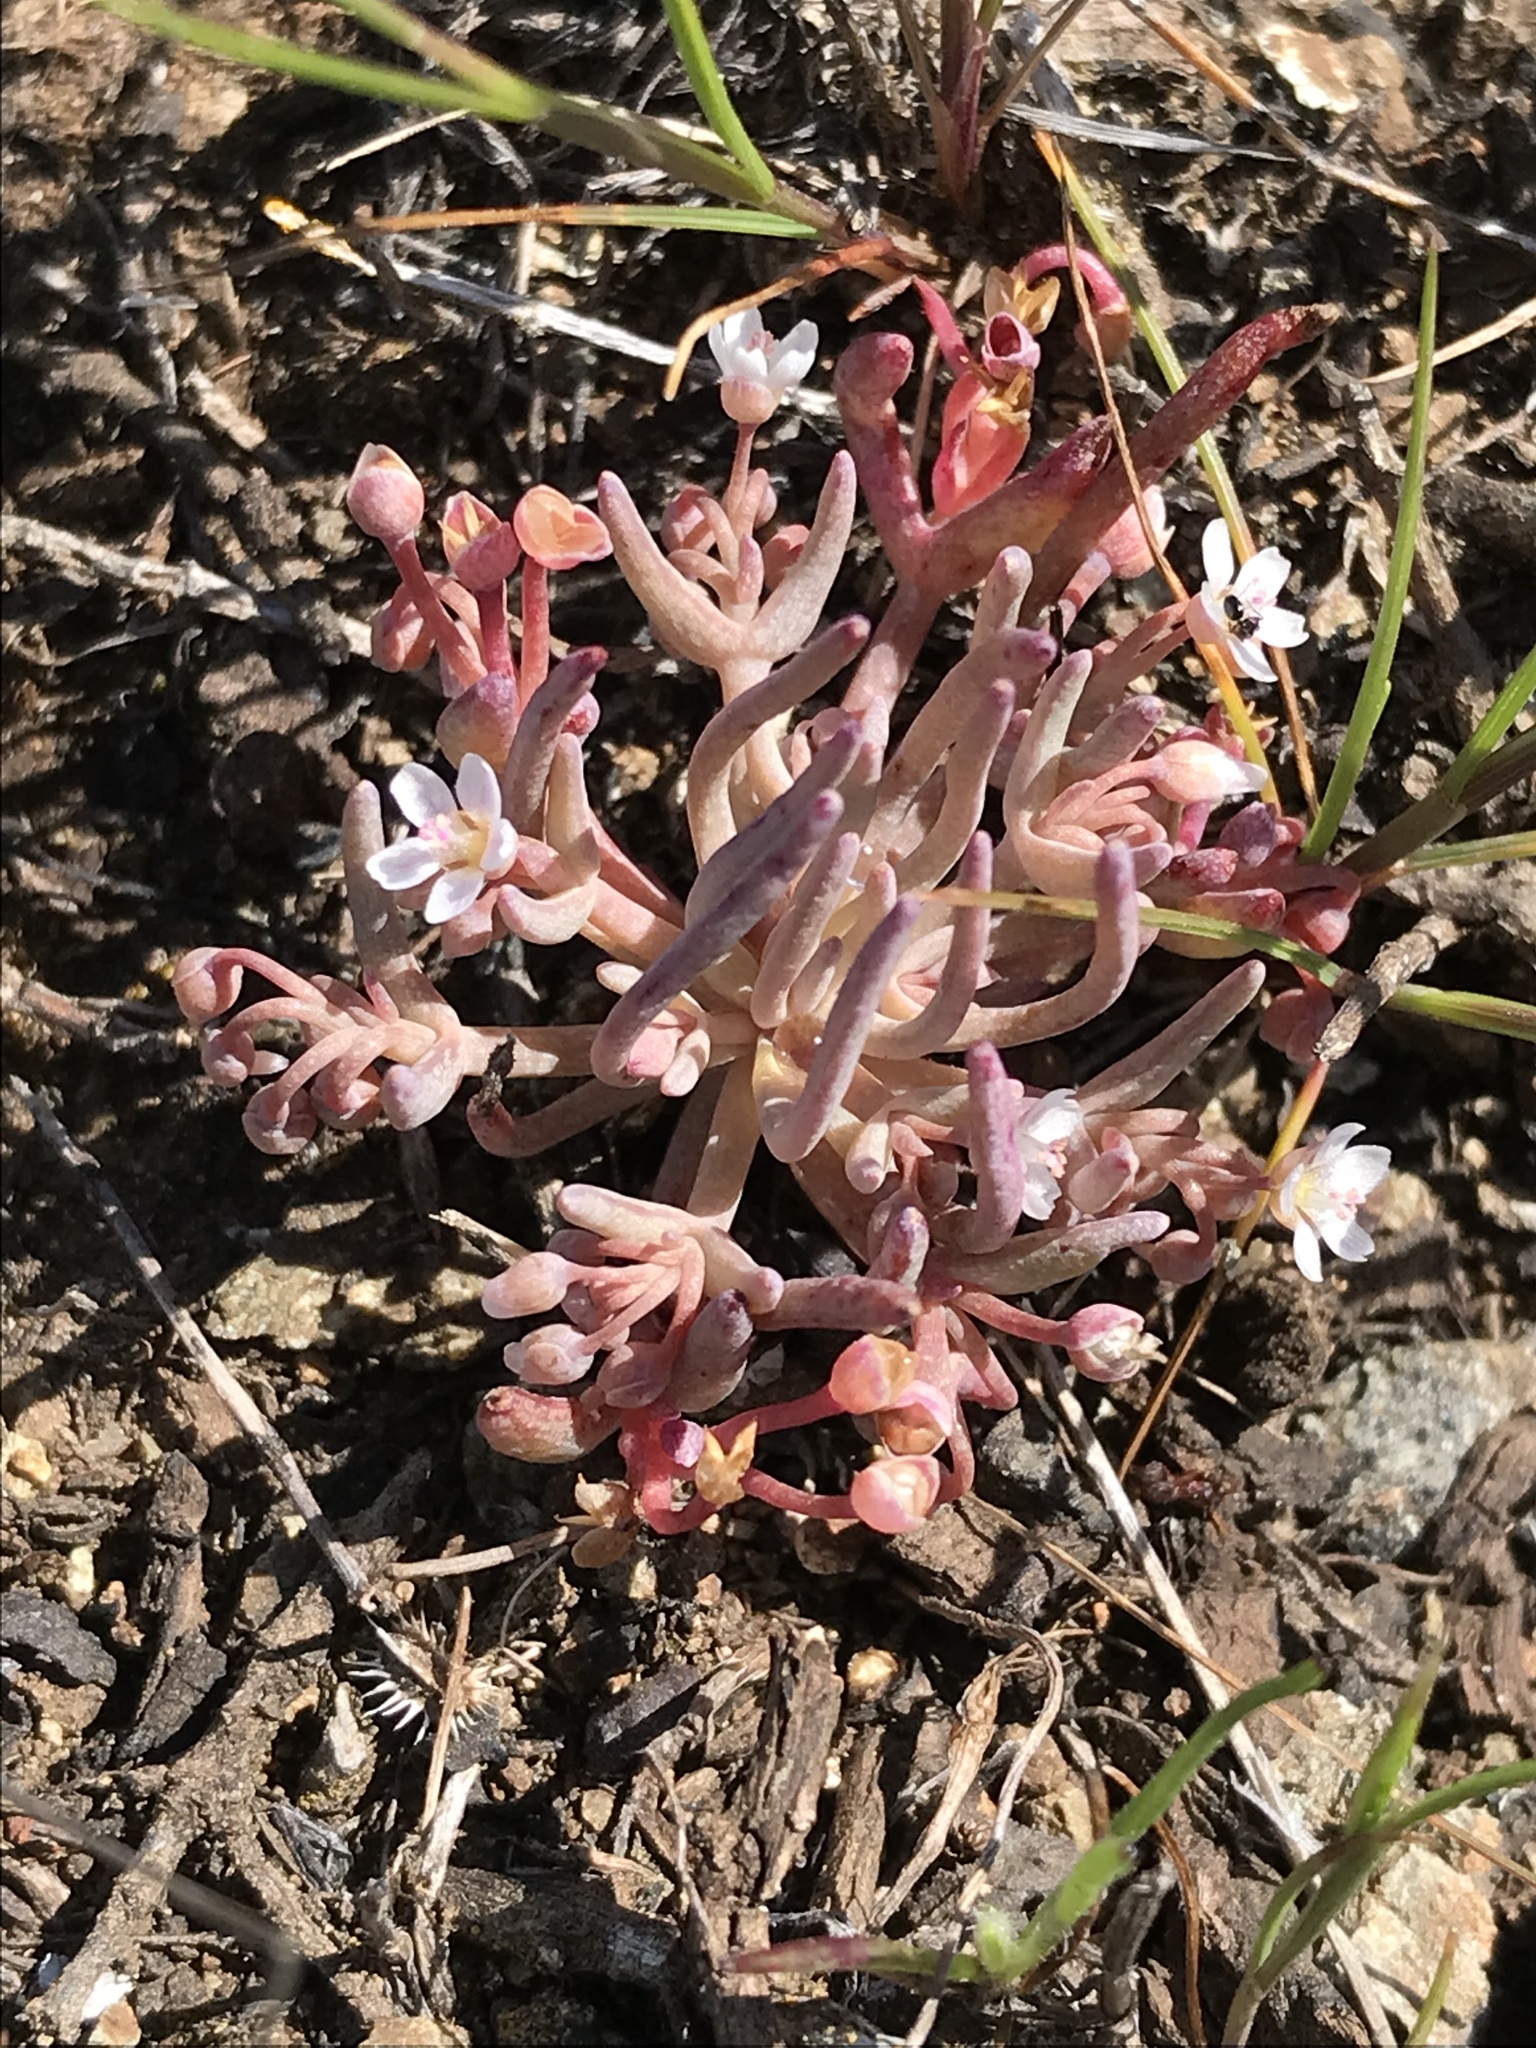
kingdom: Plantae
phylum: Tracheophyta
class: Magnoliopsida
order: Caryophyllales
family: Montiaceae
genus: Claytonia
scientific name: Claytonia exigua
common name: Pale spring beauty
